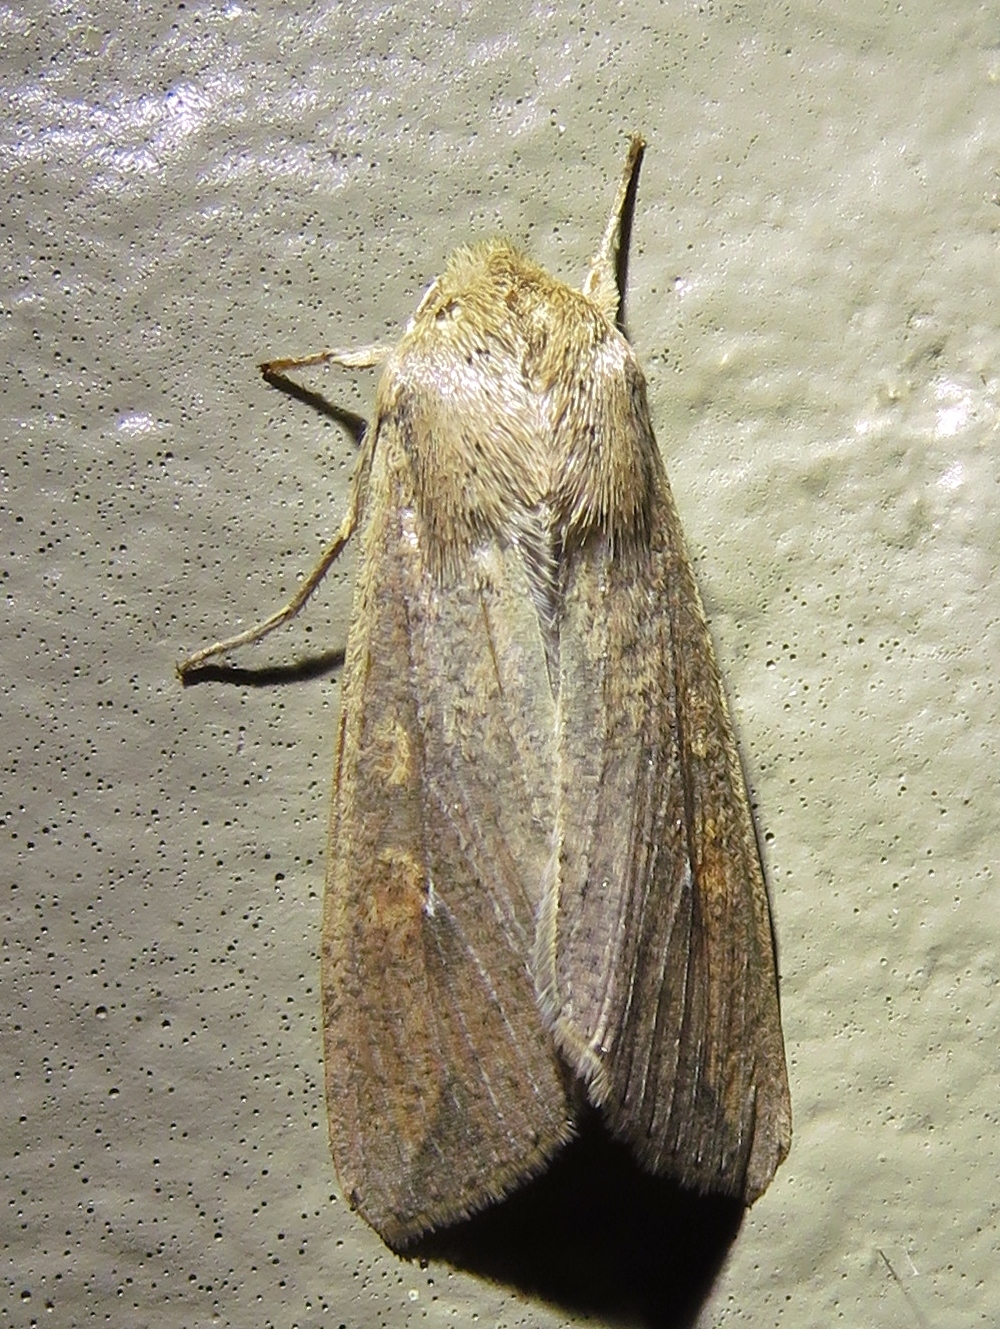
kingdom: Animalia
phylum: Arthropoda
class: Insecta
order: Lepidoptera
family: Noctuidae
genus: Mythimna
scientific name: Mythimna unipuncta
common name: White-speck
